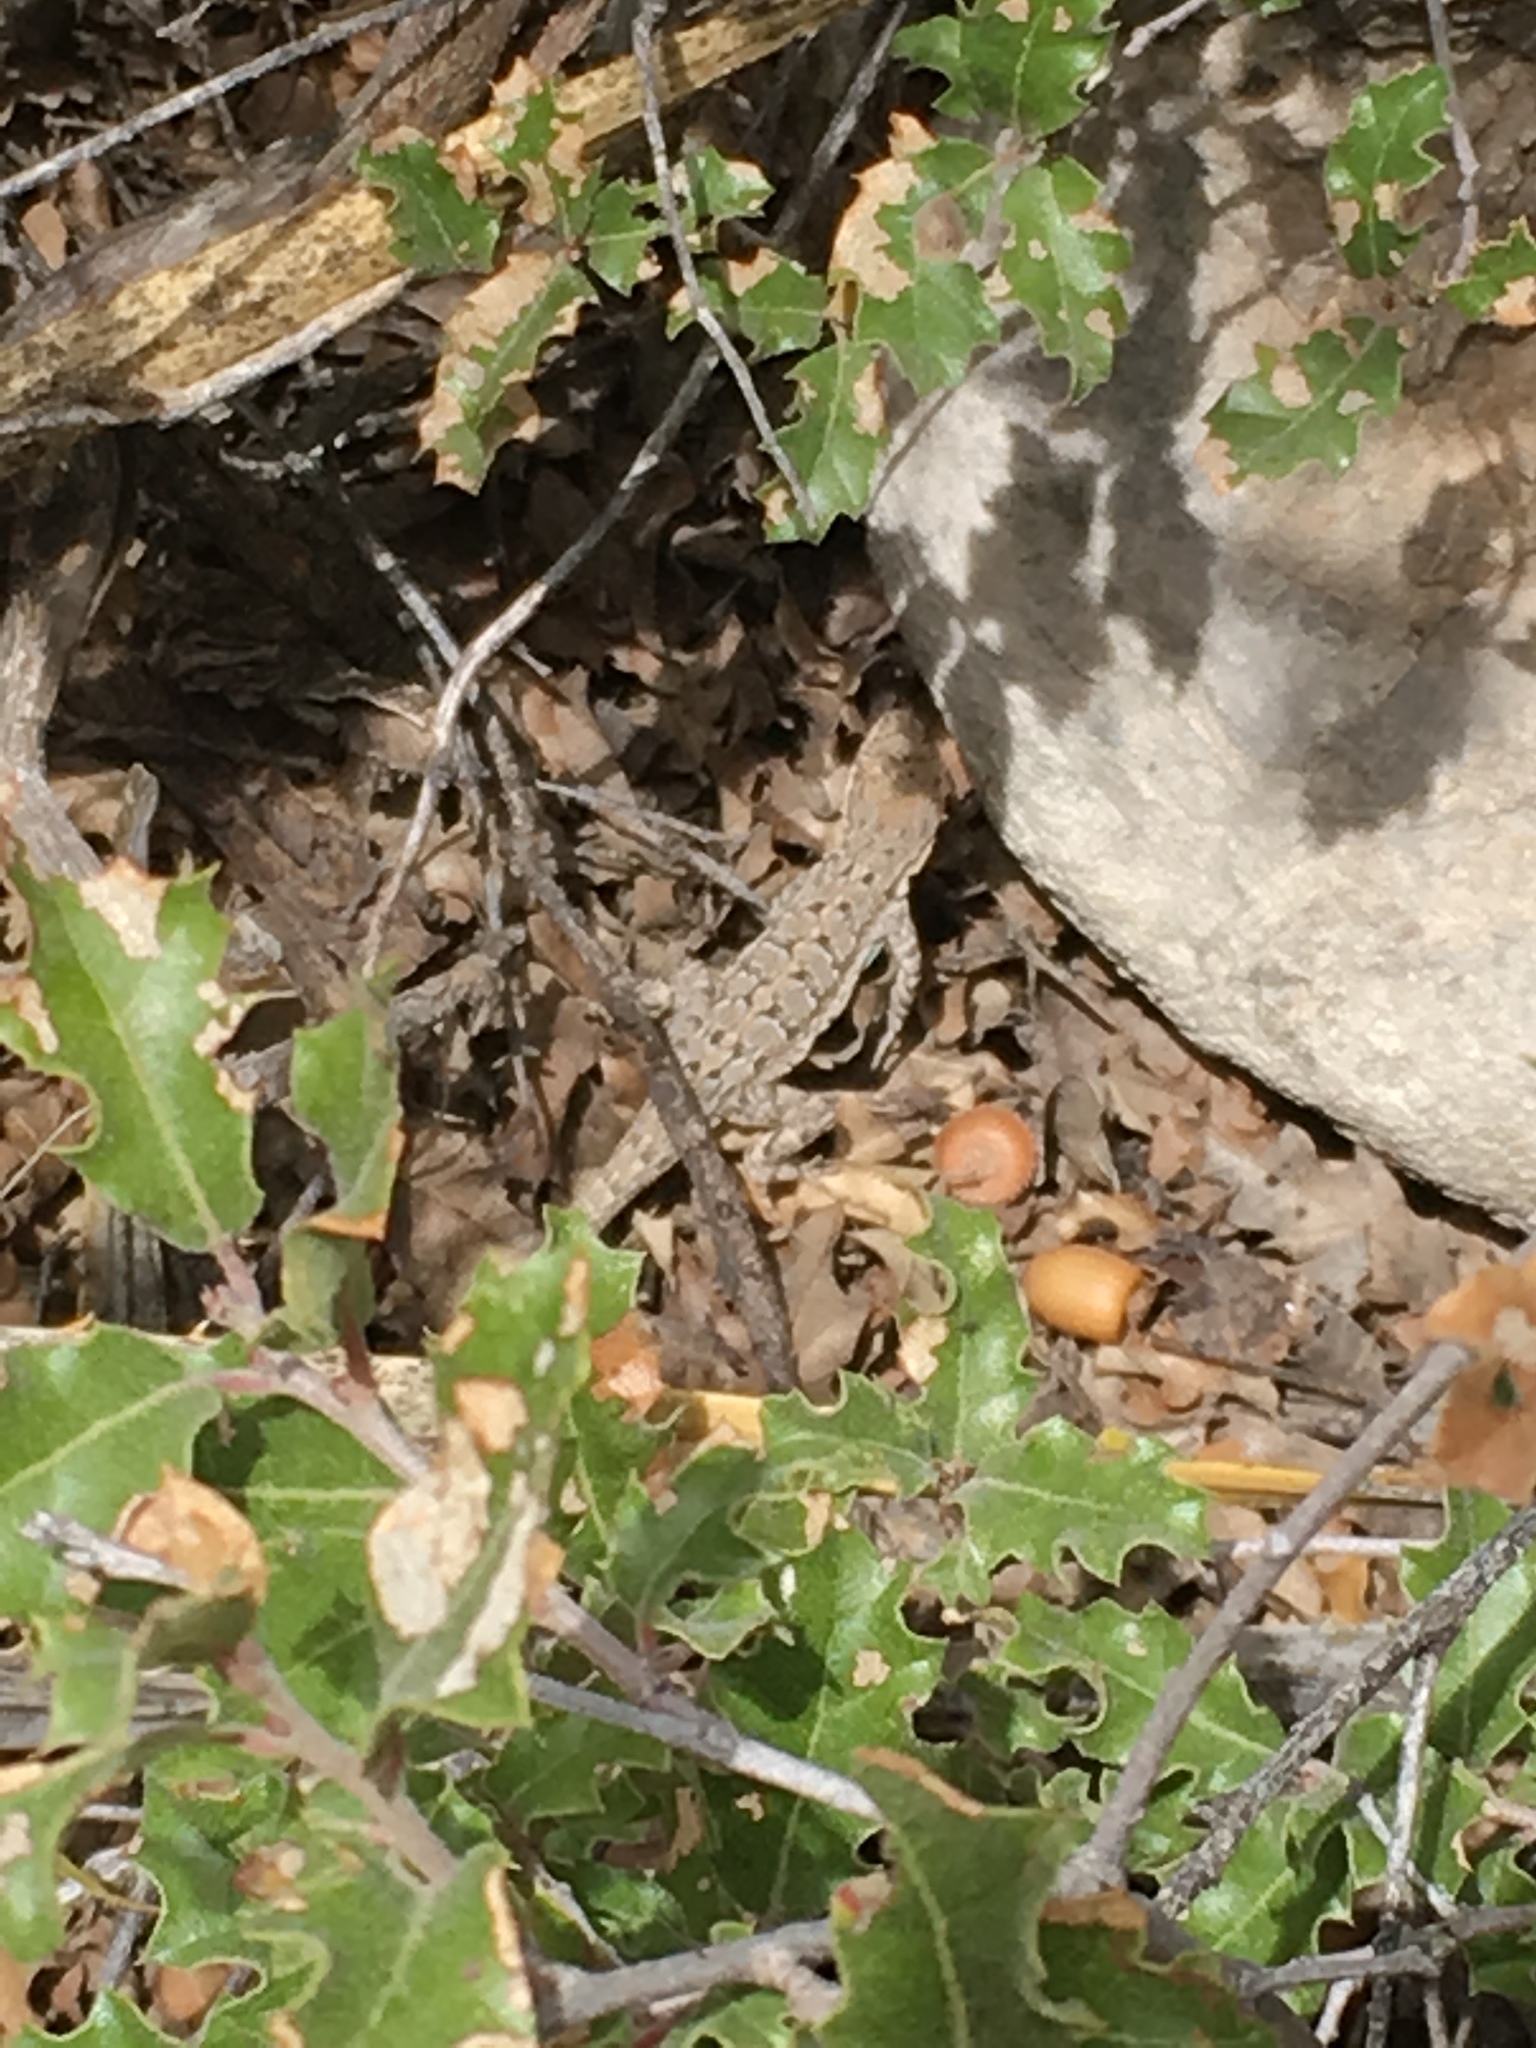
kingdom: Animalia
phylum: Chordata
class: Squamata
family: Phrynosomatidae
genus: Urosaurus
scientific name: Urosaurus ornatus
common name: Ornate tree lizard
